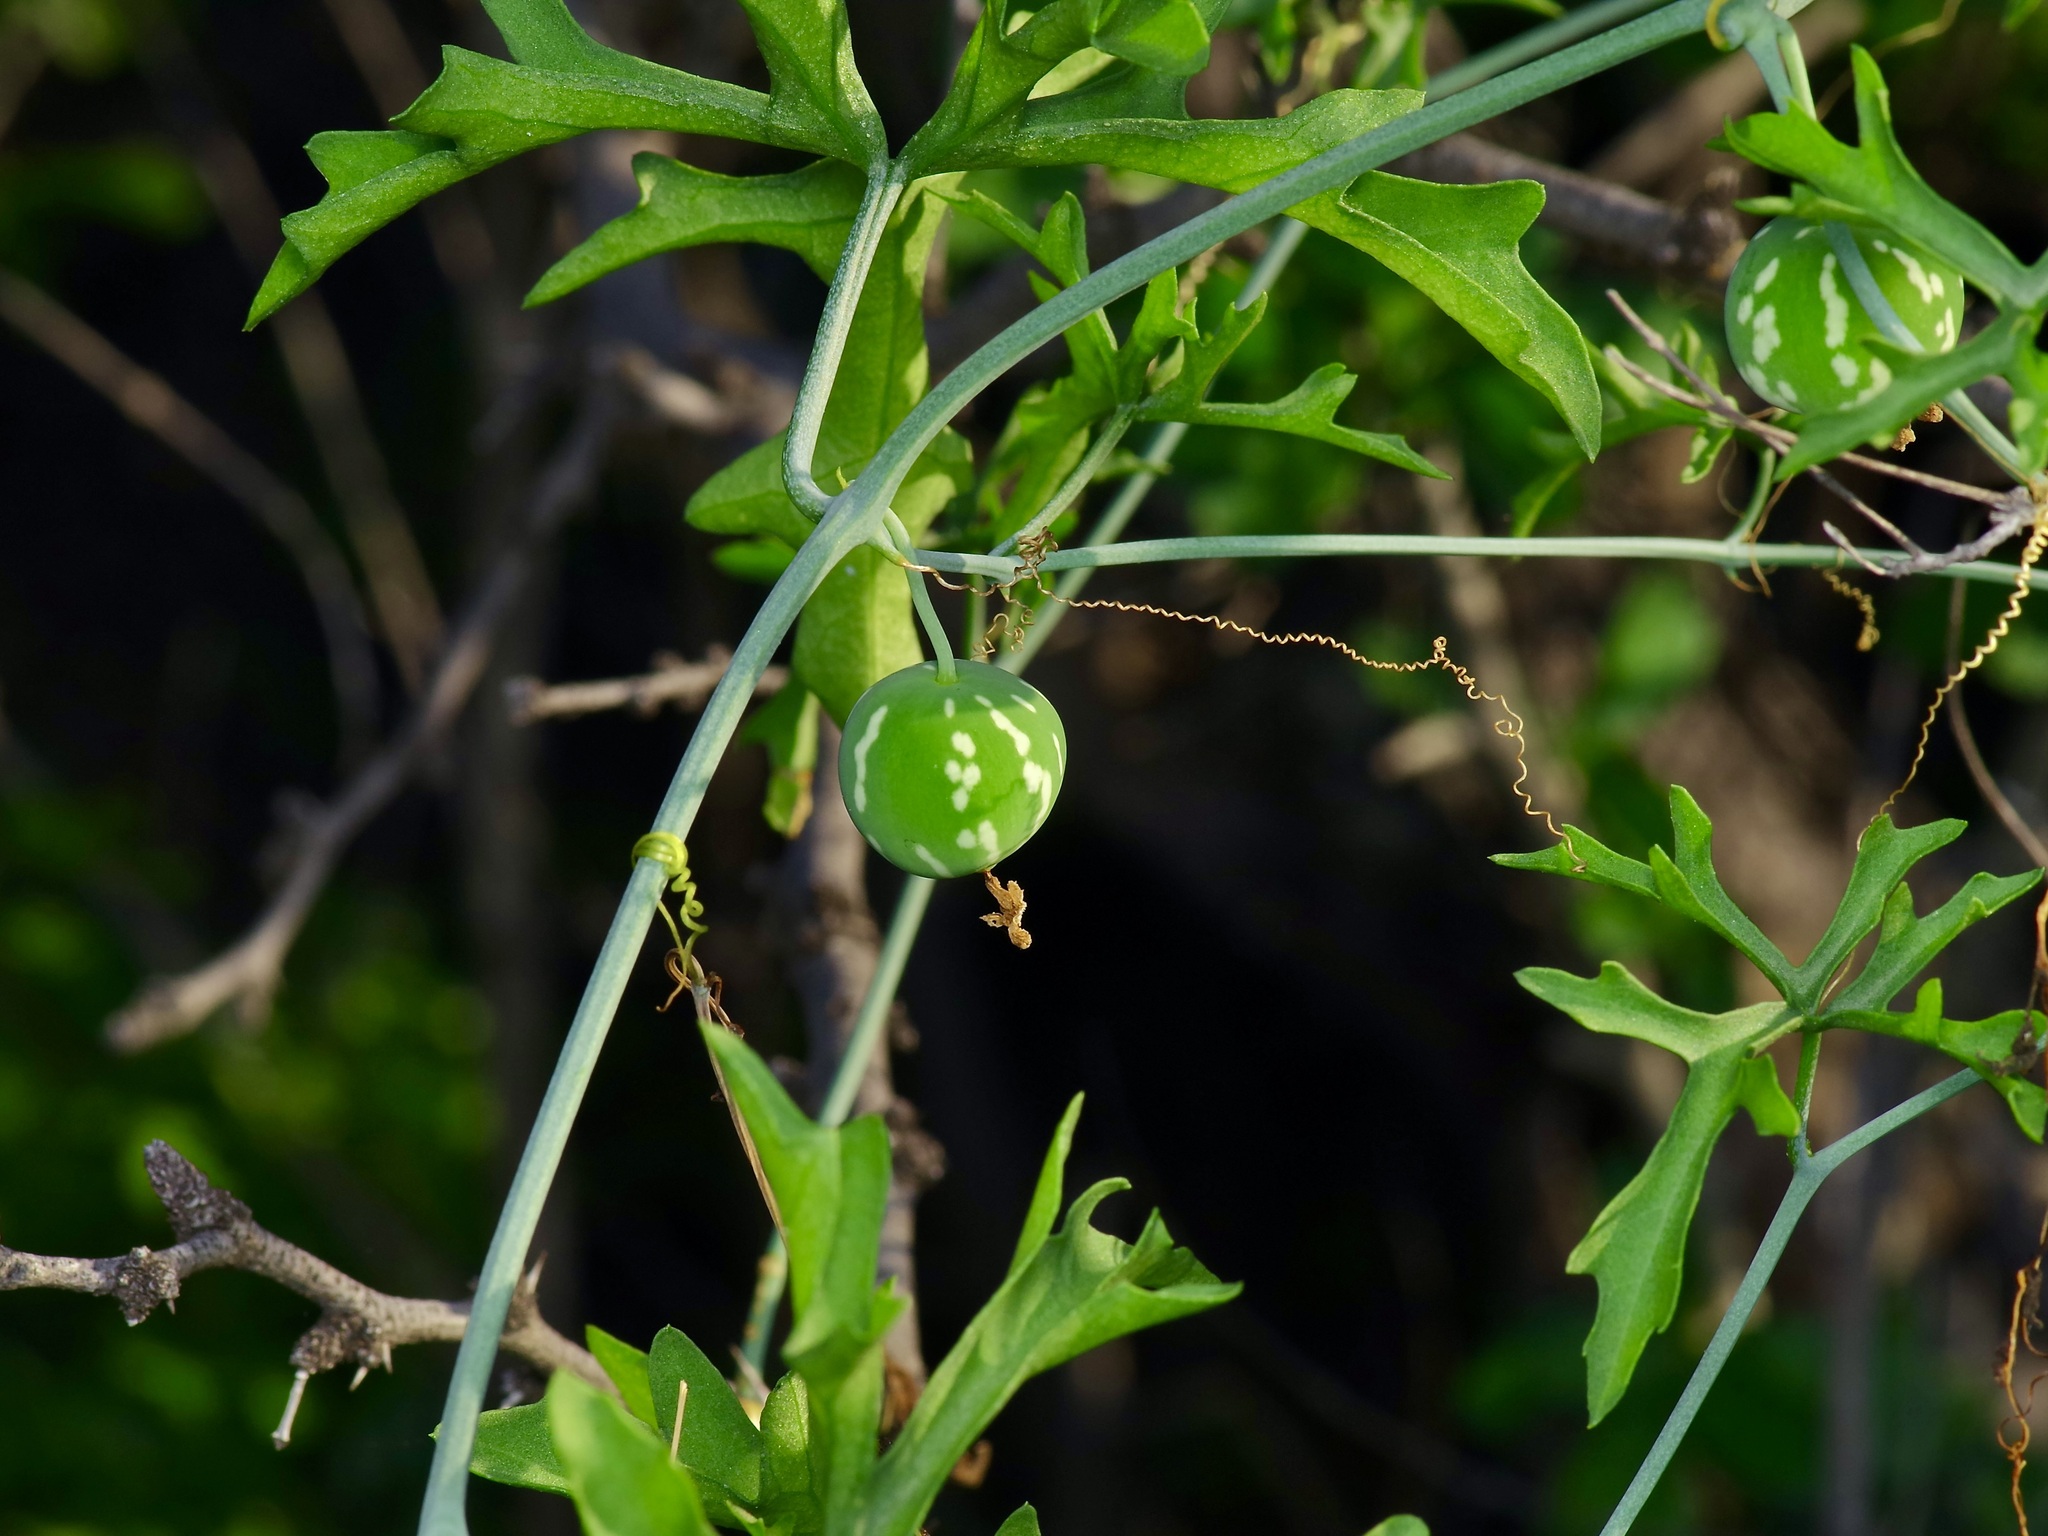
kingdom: Plantae
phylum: Tracheophyta
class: Magnoliopsida
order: Cucurbitales
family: Cucurbitaceae
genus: Ibervillea
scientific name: Ibervillea lindheimeri
